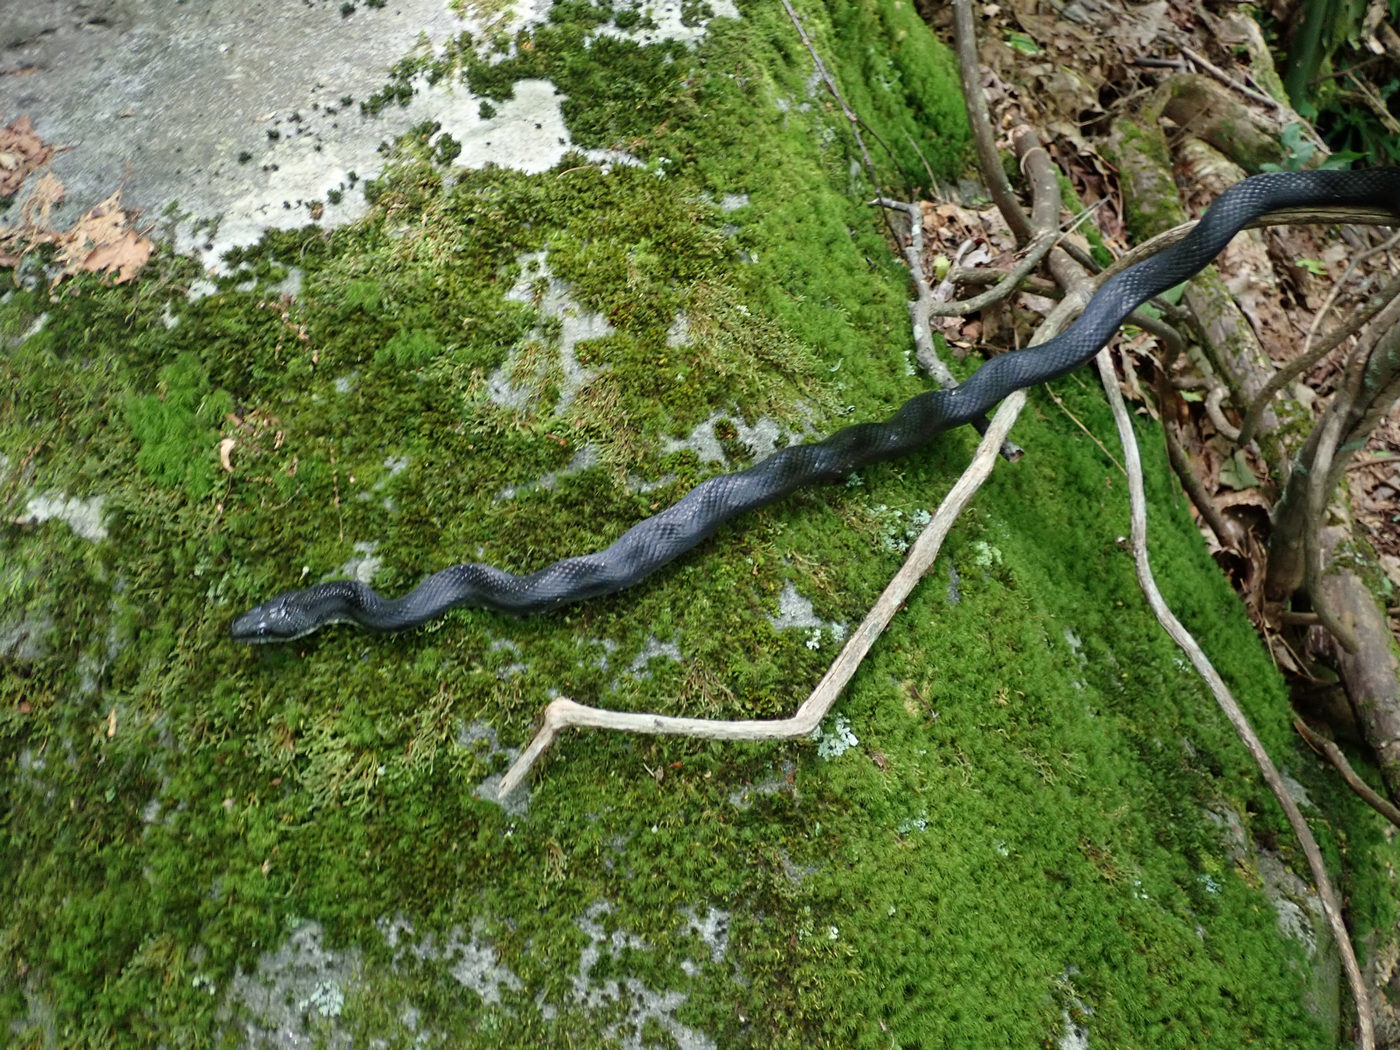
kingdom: Animalia
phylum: Chordata
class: Squamata
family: Colubridae
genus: Pantherophis
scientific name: Pantherophis alleghaniensis
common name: Eastern rat snake
